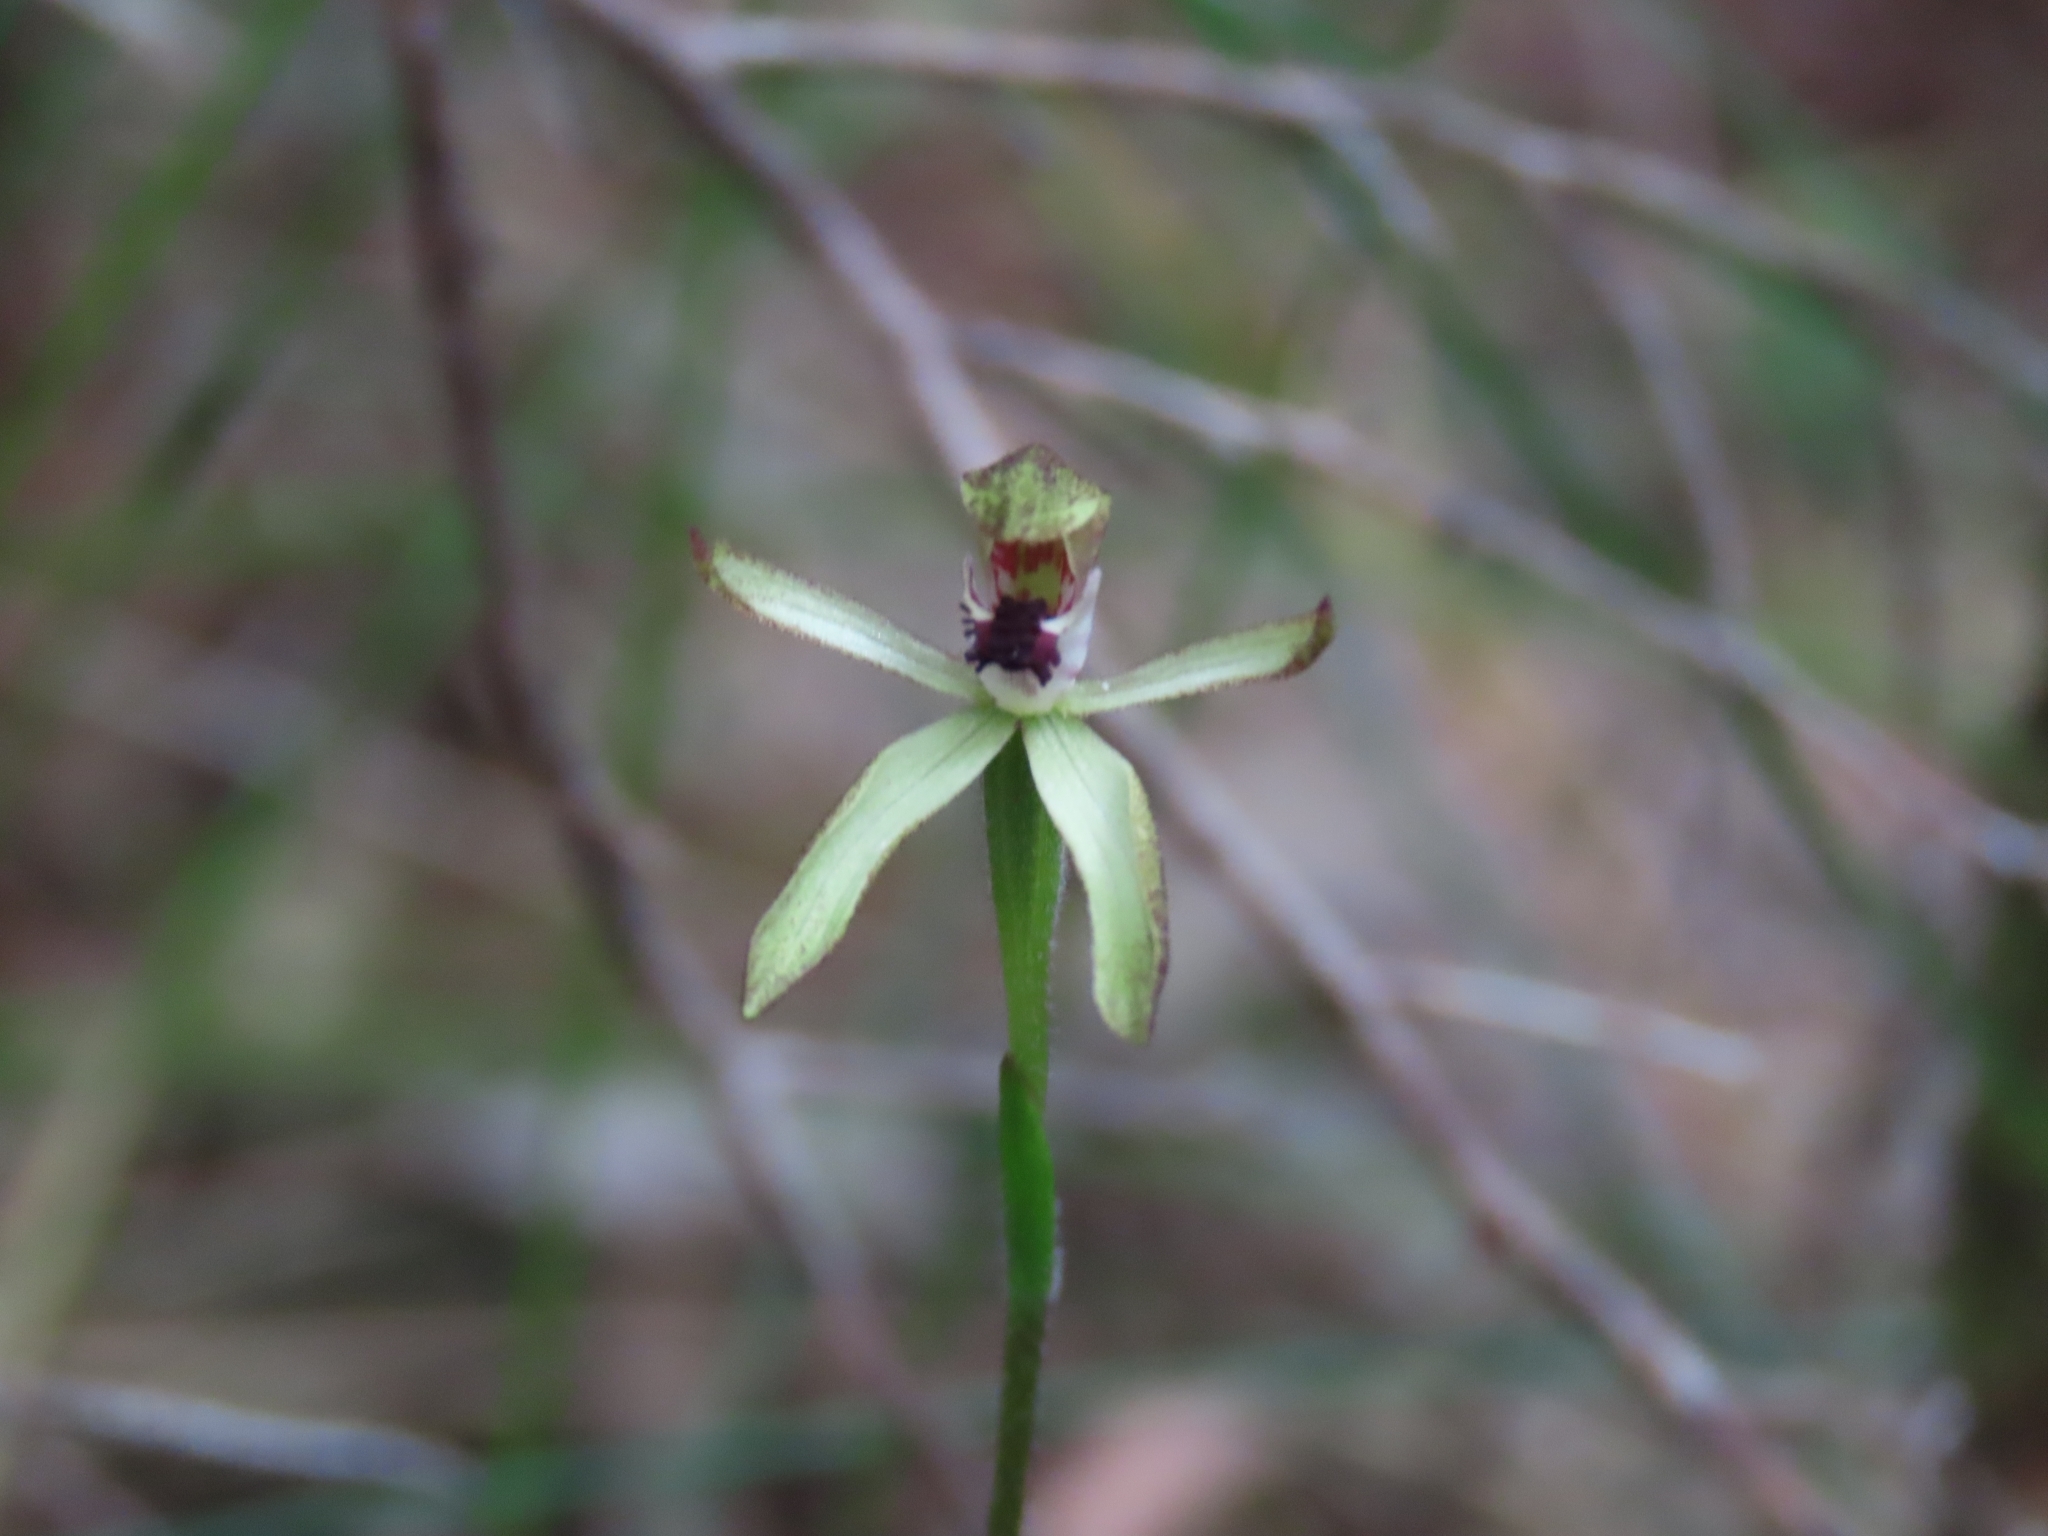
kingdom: Plantae
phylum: Tracheophyta
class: Liliopsida
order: Asparagales
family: Orchidaceae
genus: Caladenia
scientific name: Caladenia atradenia
